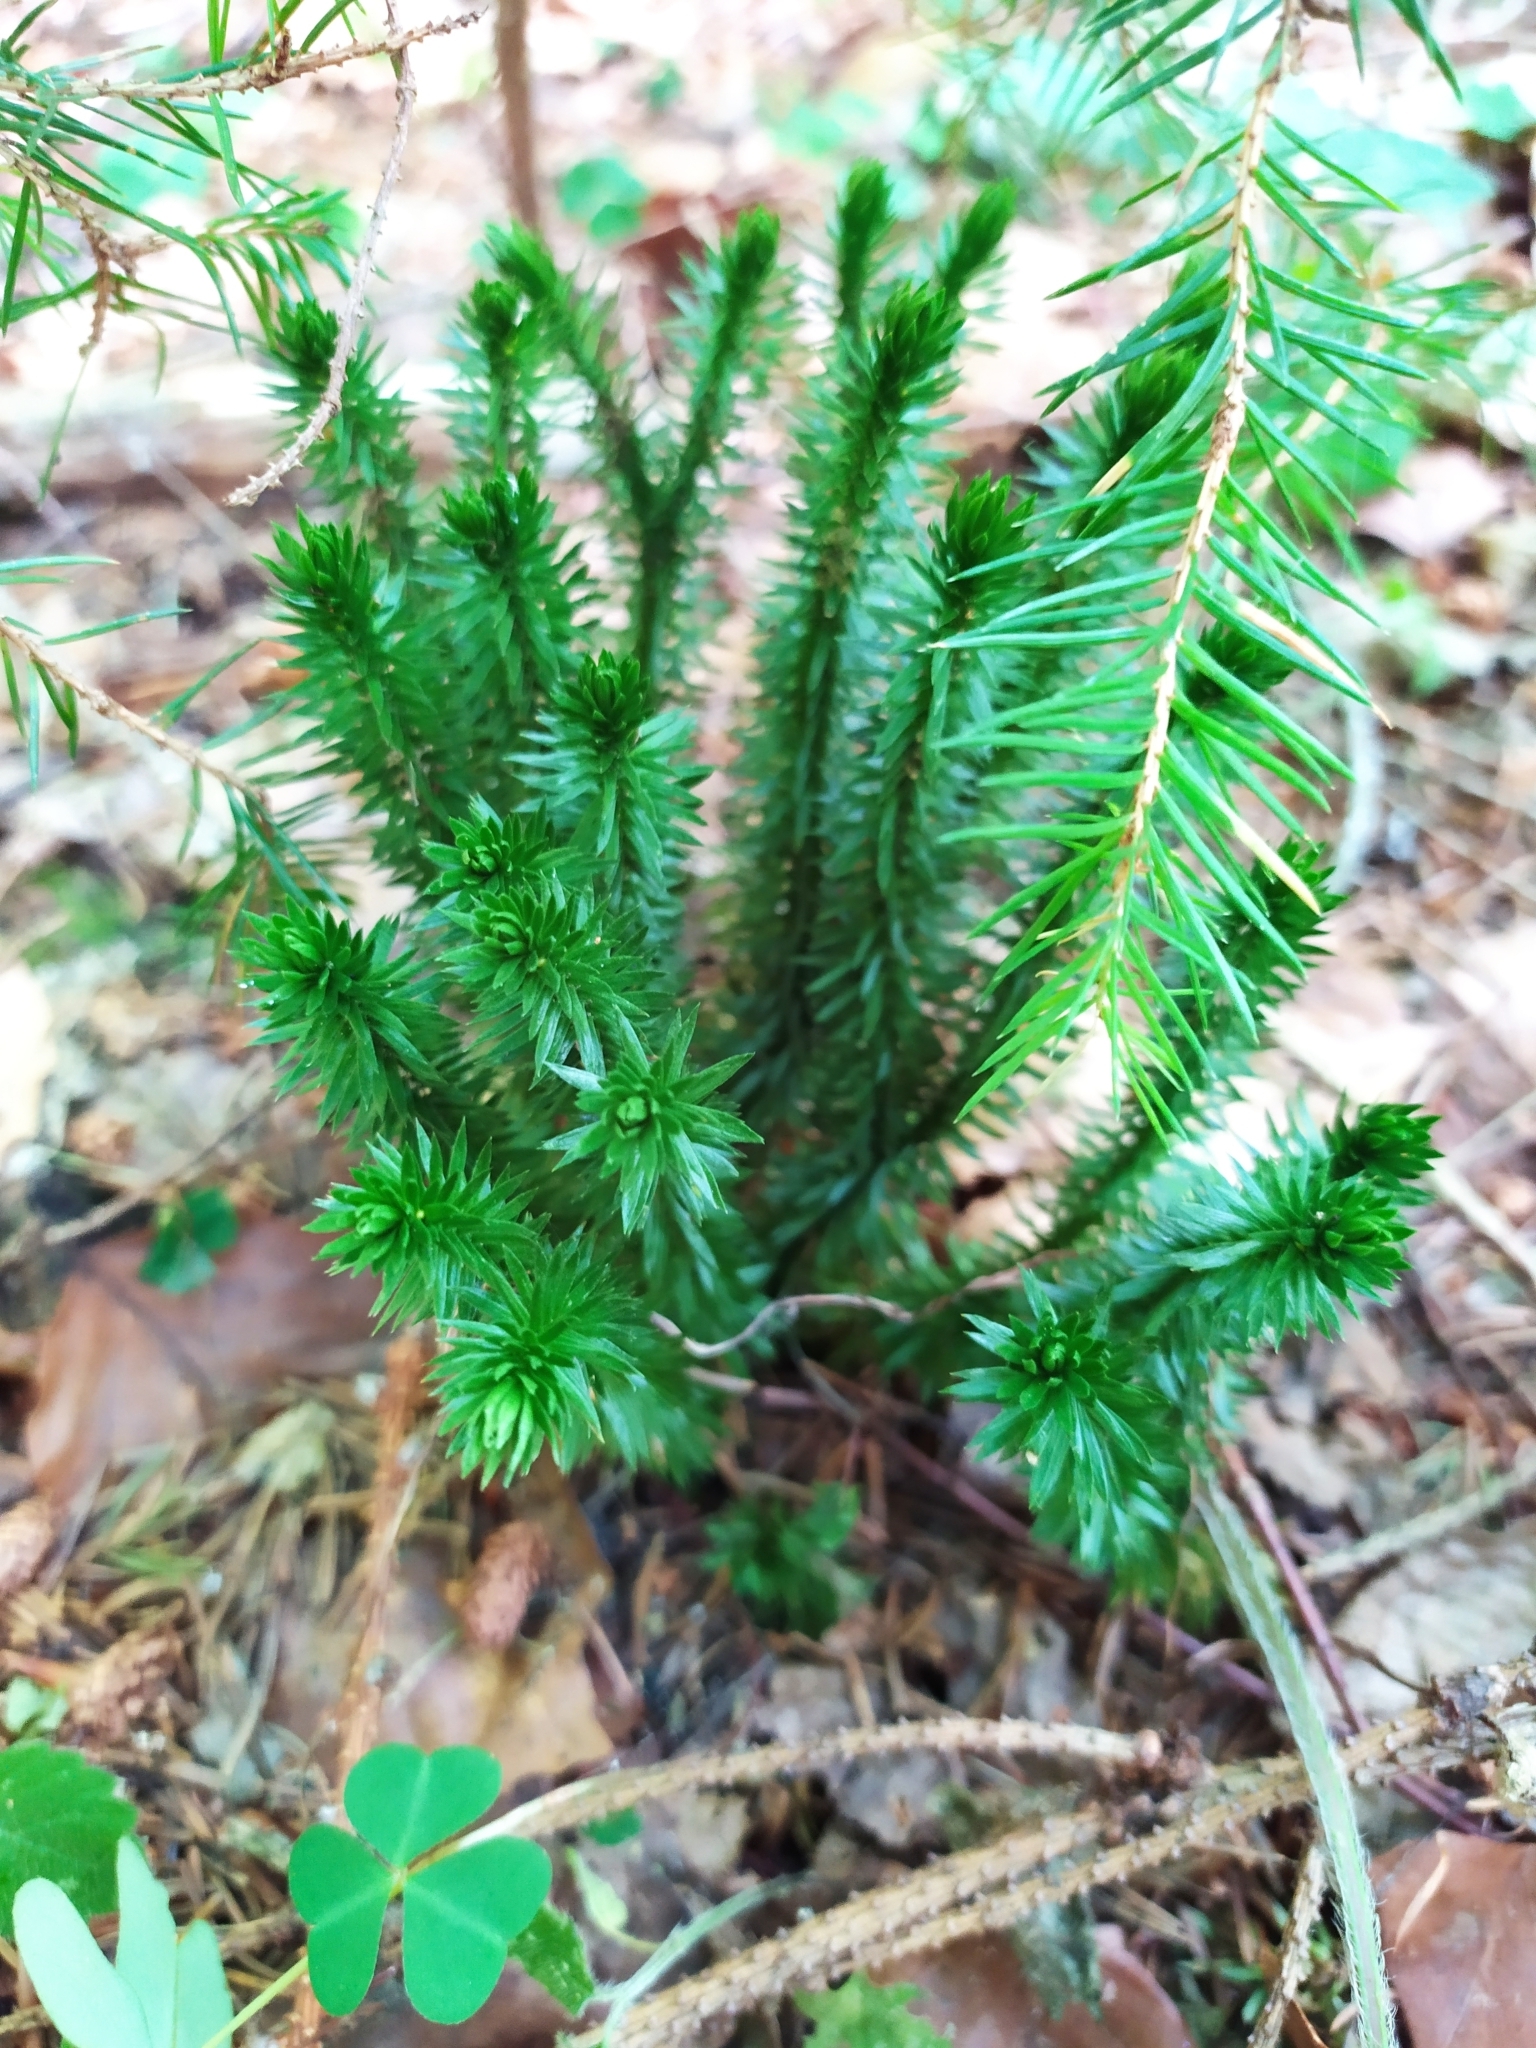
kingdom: Plantae
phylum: Tracheophyta
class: Lycopodiopsida
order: Lycopodiales
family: Lycopodiaceae
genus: Huperzia
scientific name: Huperzia selago
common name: Northern firmoss
